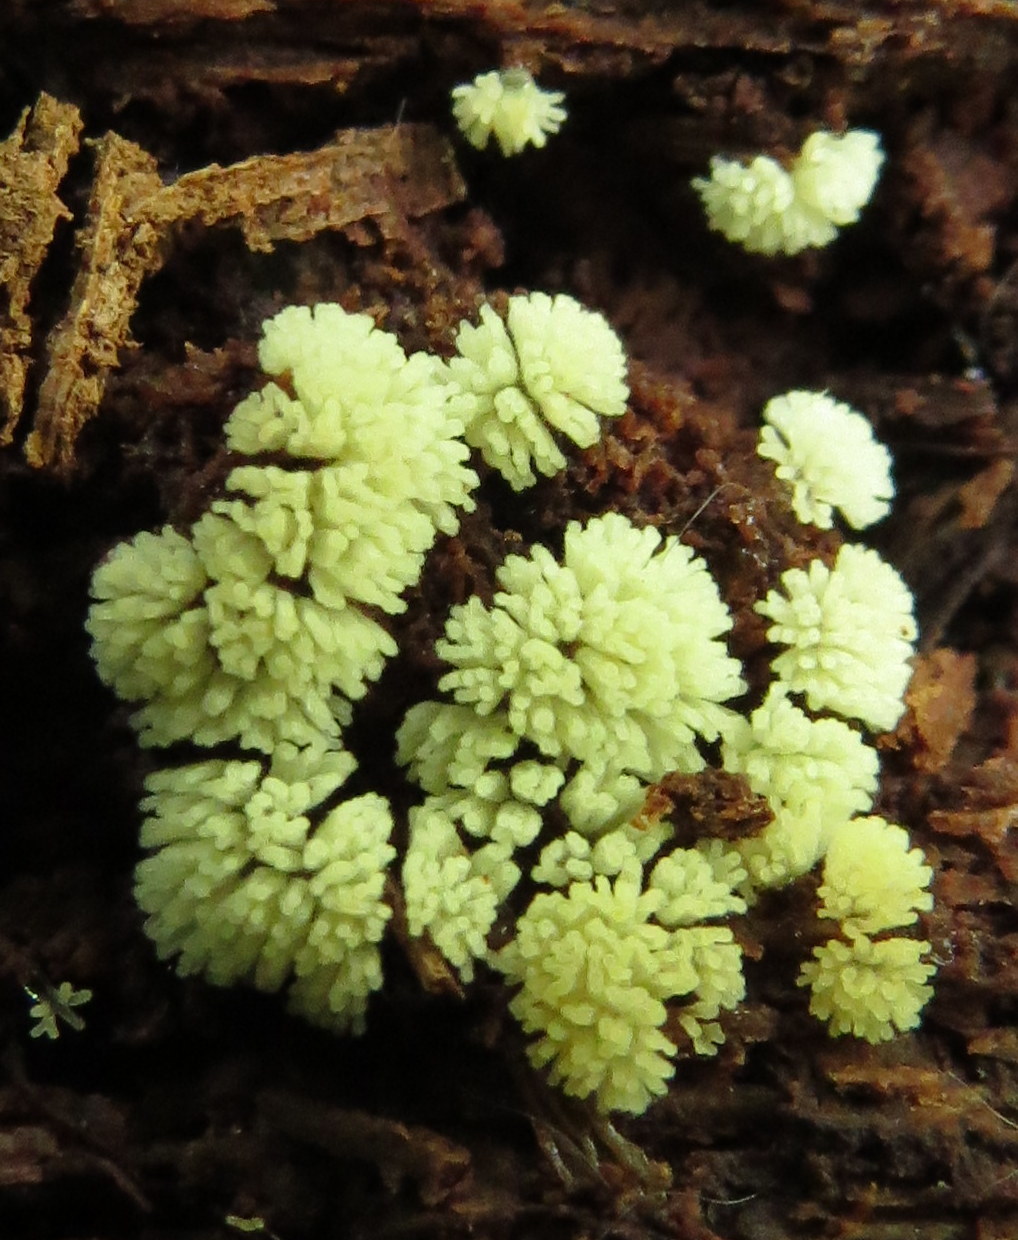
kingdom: Protozoa
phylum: Mycetozoa
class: Protosteliomycetes
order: Ceratiomyxales
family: Ceratiomyxaceae
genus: Ceratiomyxa
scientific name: Ceratiomyxa fruticulosa
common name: Honeycomb coral slime mold
